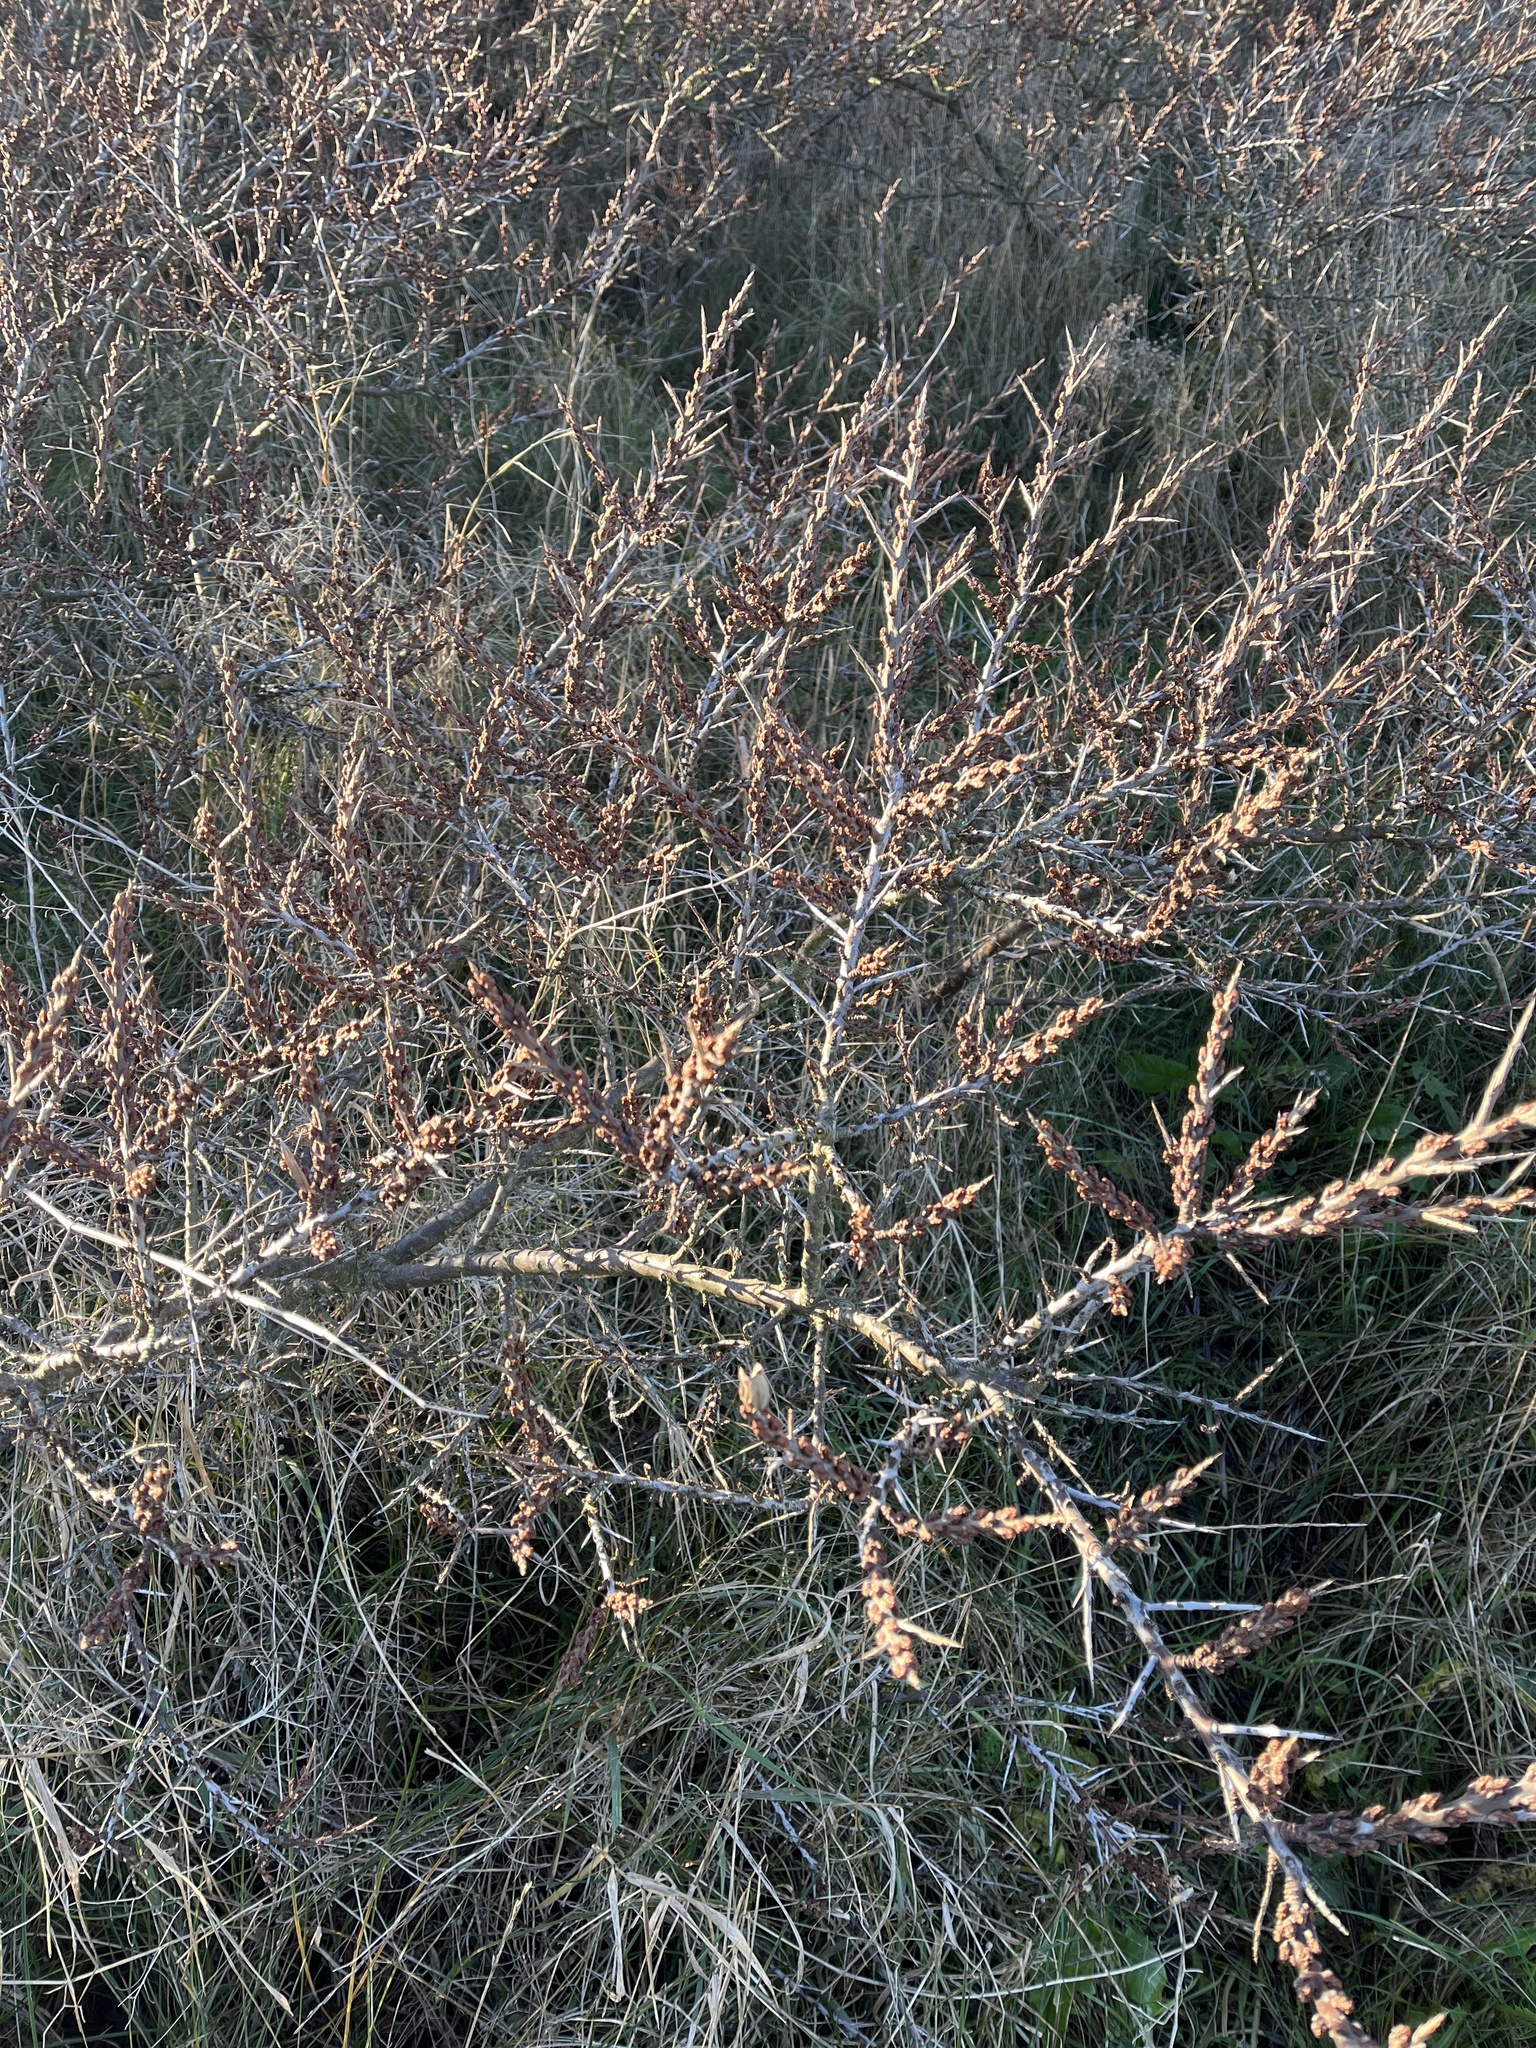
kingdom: Plantae
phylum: Tracheophyta
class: Magnoliopsida
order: Rosales
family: Elaeagnaceae
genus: Hippophae
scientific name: Hippophae rhamnoides
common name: Sea-buckthorn
